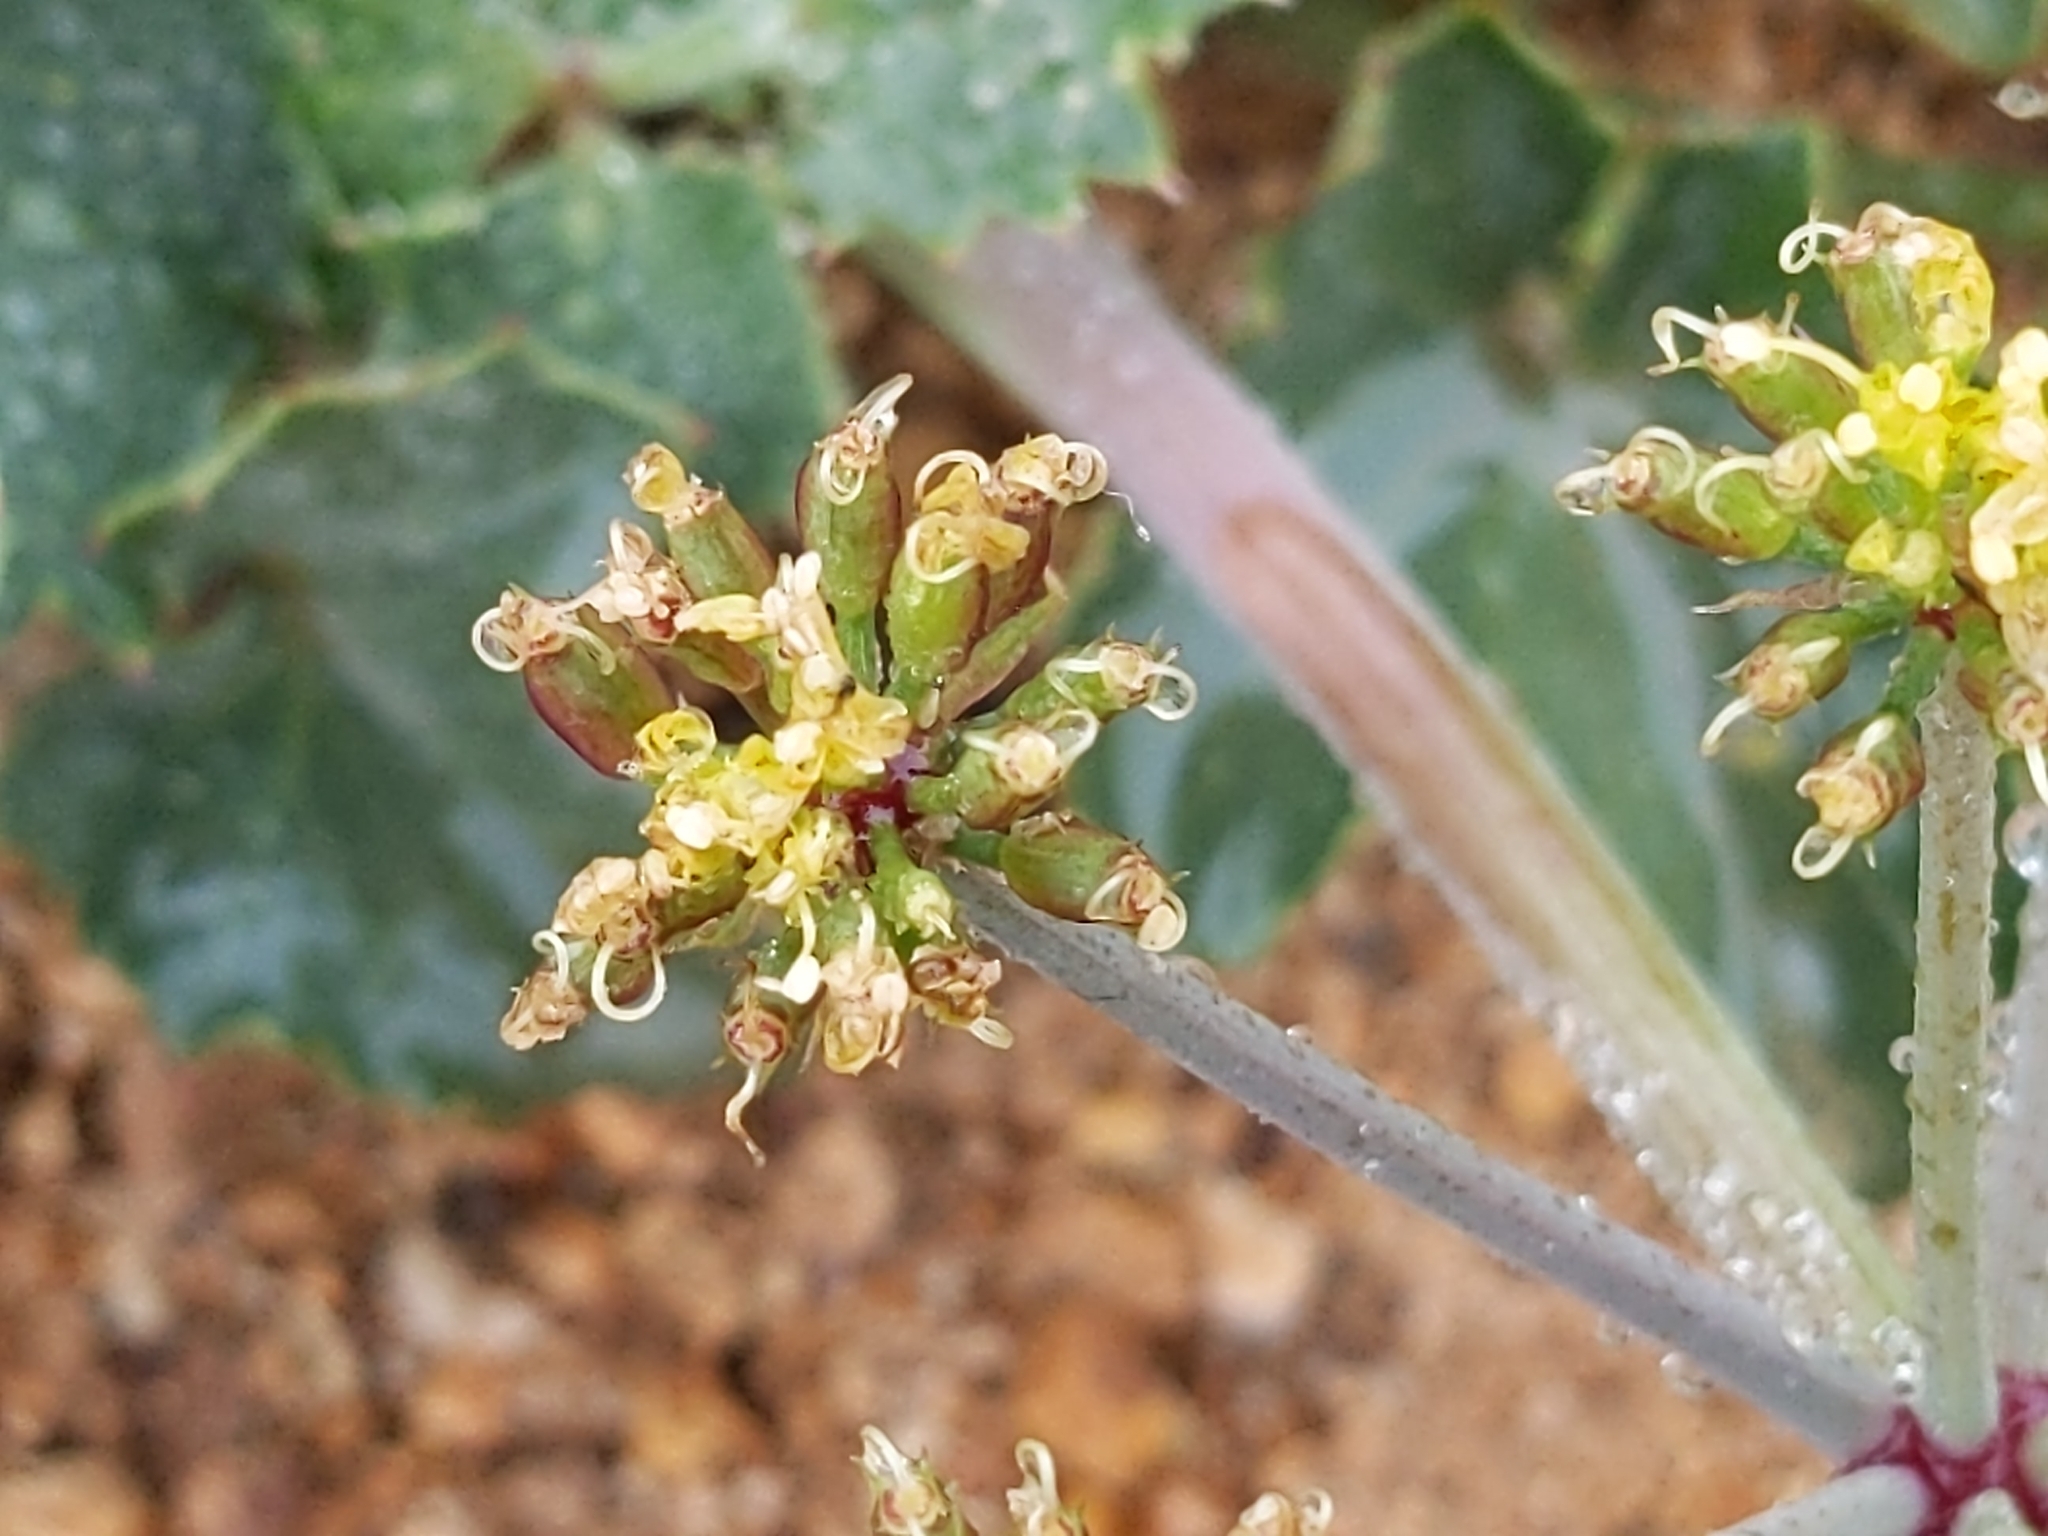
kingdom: Plantae
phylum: Tracheophyta
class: Magnoliopsida
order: Apiales
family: Apiaceae
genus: Lomatium
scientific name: Lomatium lucidum
